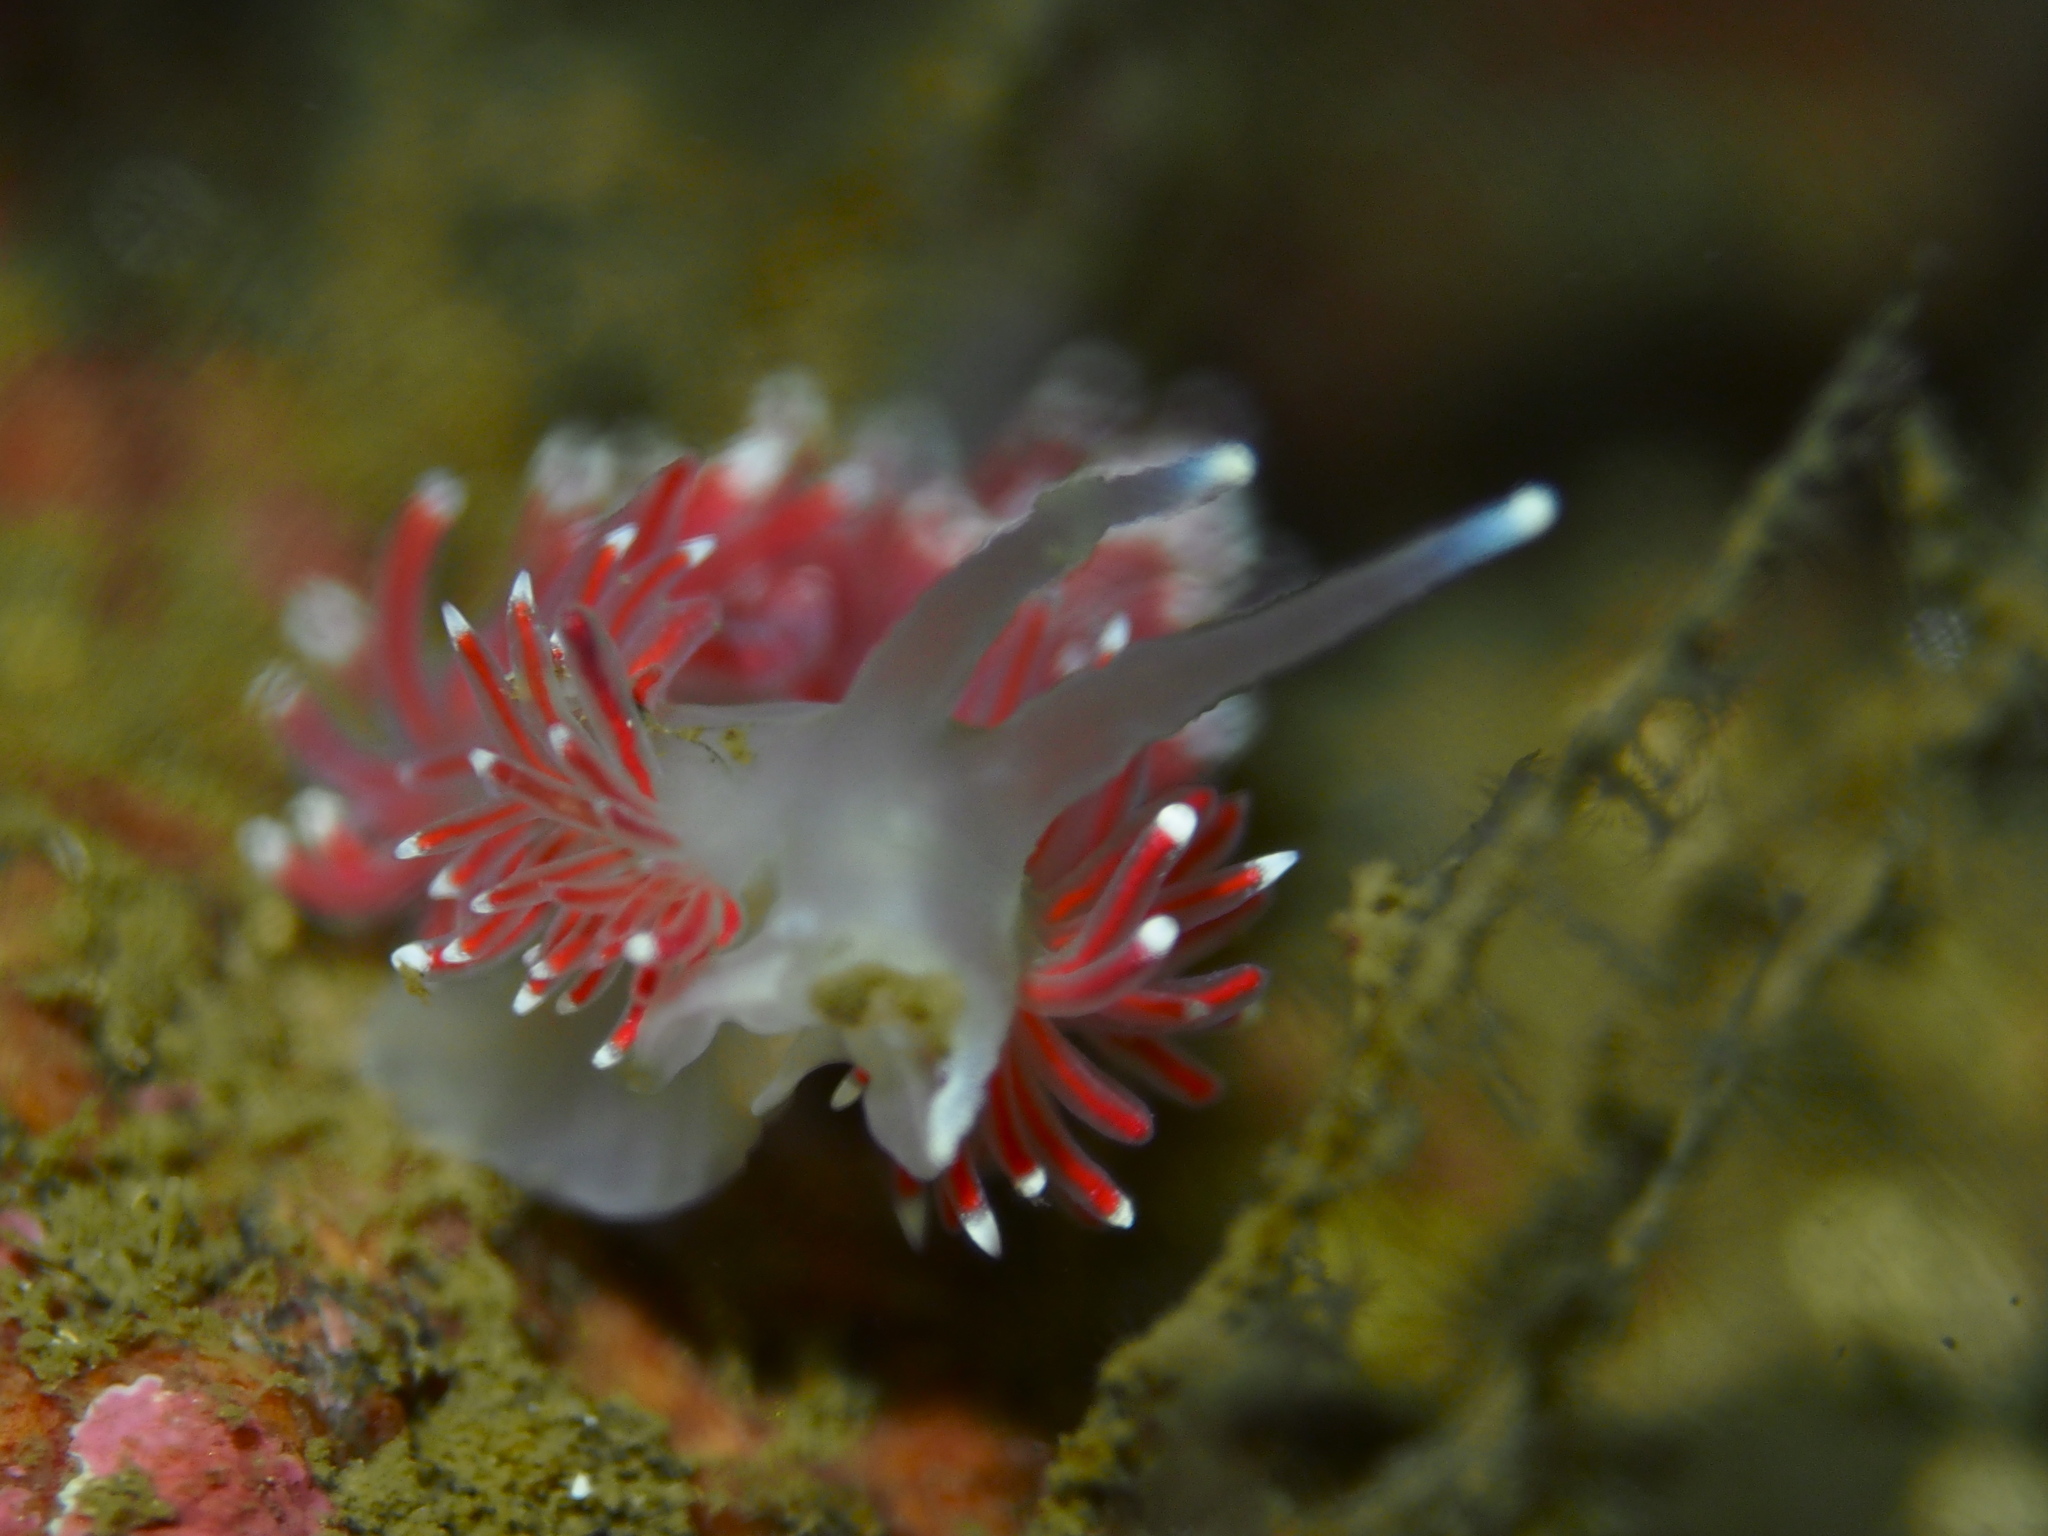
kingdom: Animalia
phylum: Mollusca
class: Gastropoda
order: Nudibranchia
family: Flabellinidae
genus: Carronella
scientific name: Carronella pellucida
